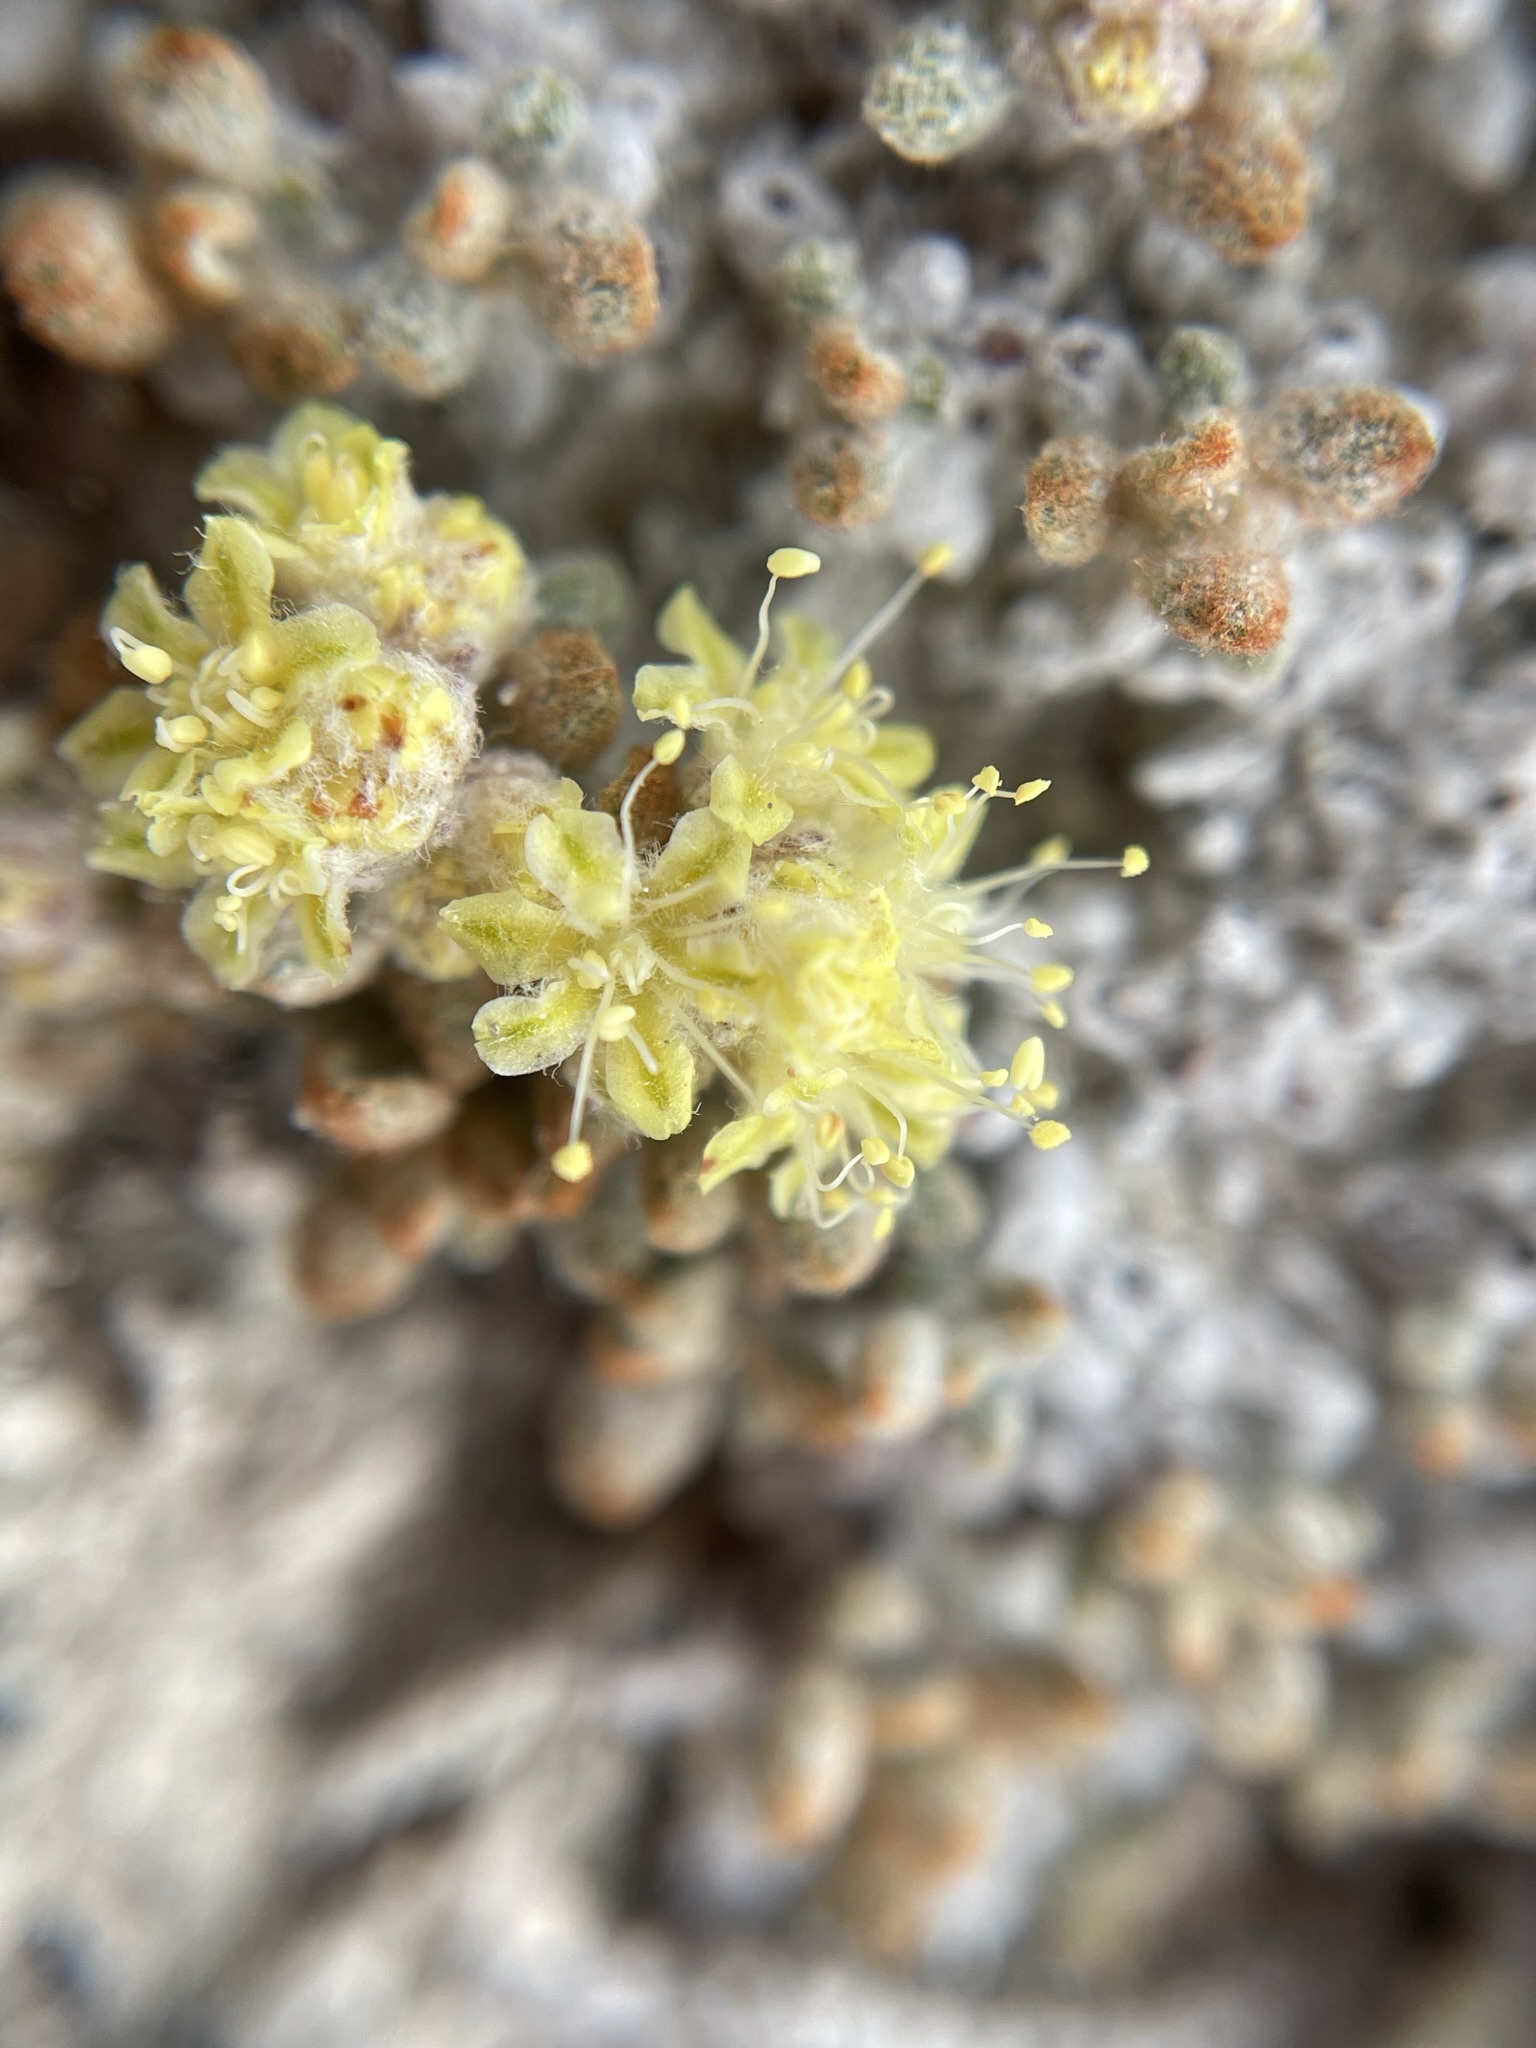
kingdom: Plantae
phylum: Tracheophyta
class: Magnoliopsida
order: Caryophyllales
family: Polygonaceae
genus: Eriogonum
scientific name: Eriogonum shockleyi
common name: Shockley's wild buckwheat
